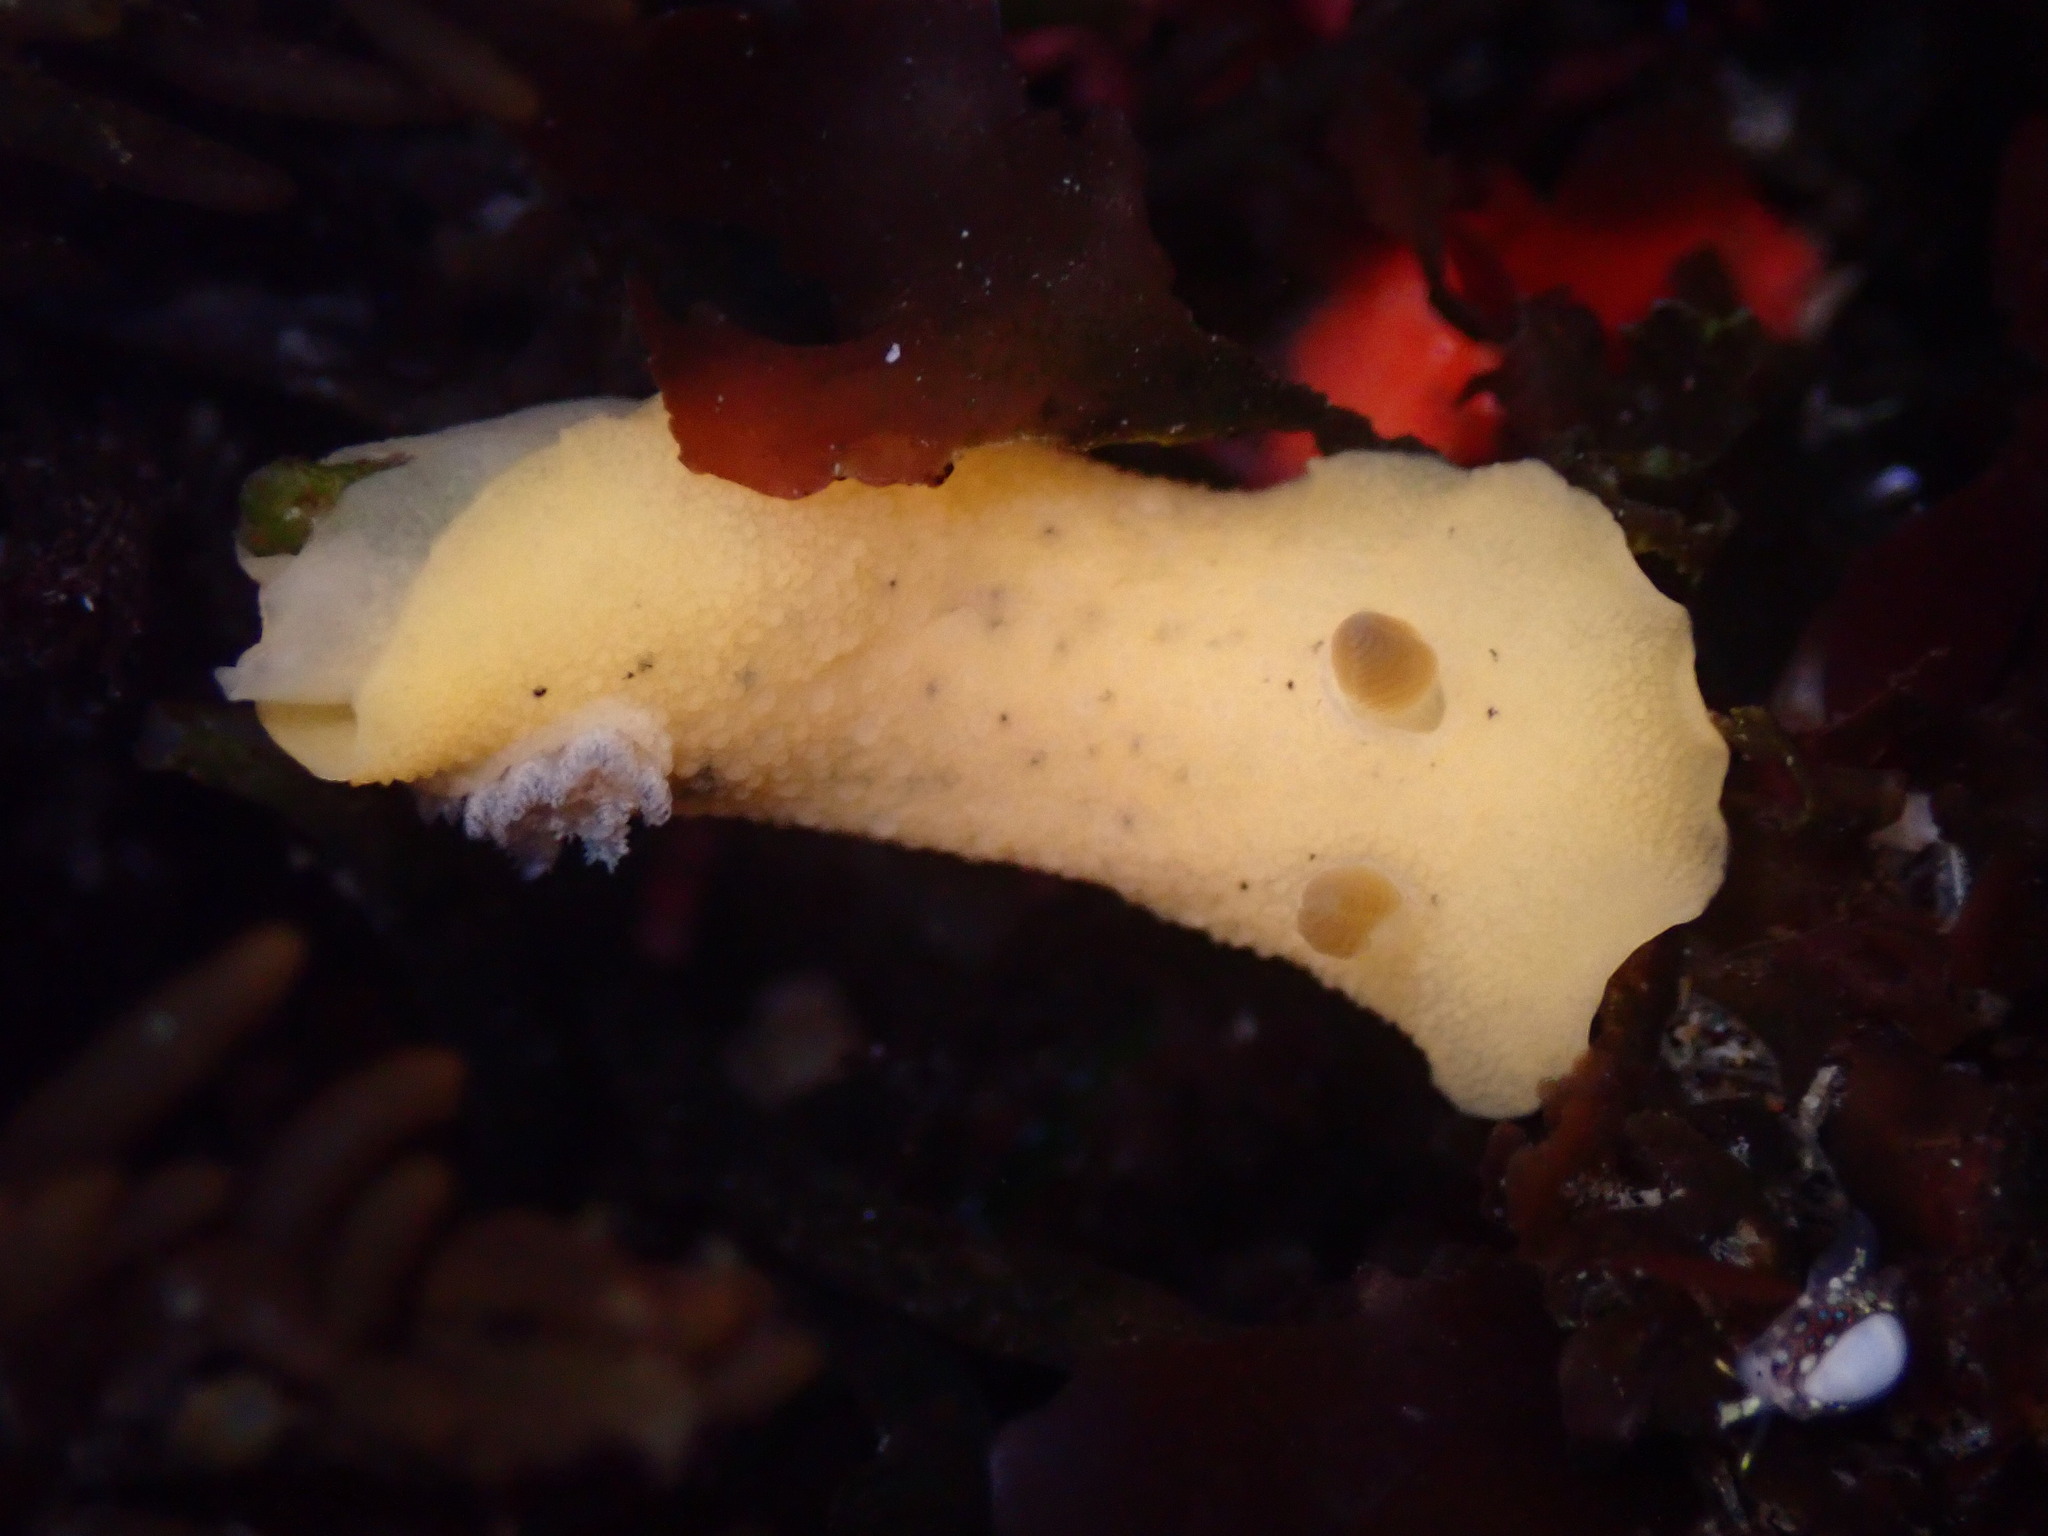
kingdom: Animalia
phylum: Mollusca
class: Gastropoda
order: Nudibranchia
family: Discodorididae
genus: Geitodoris
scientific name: Geitodoris heathi
